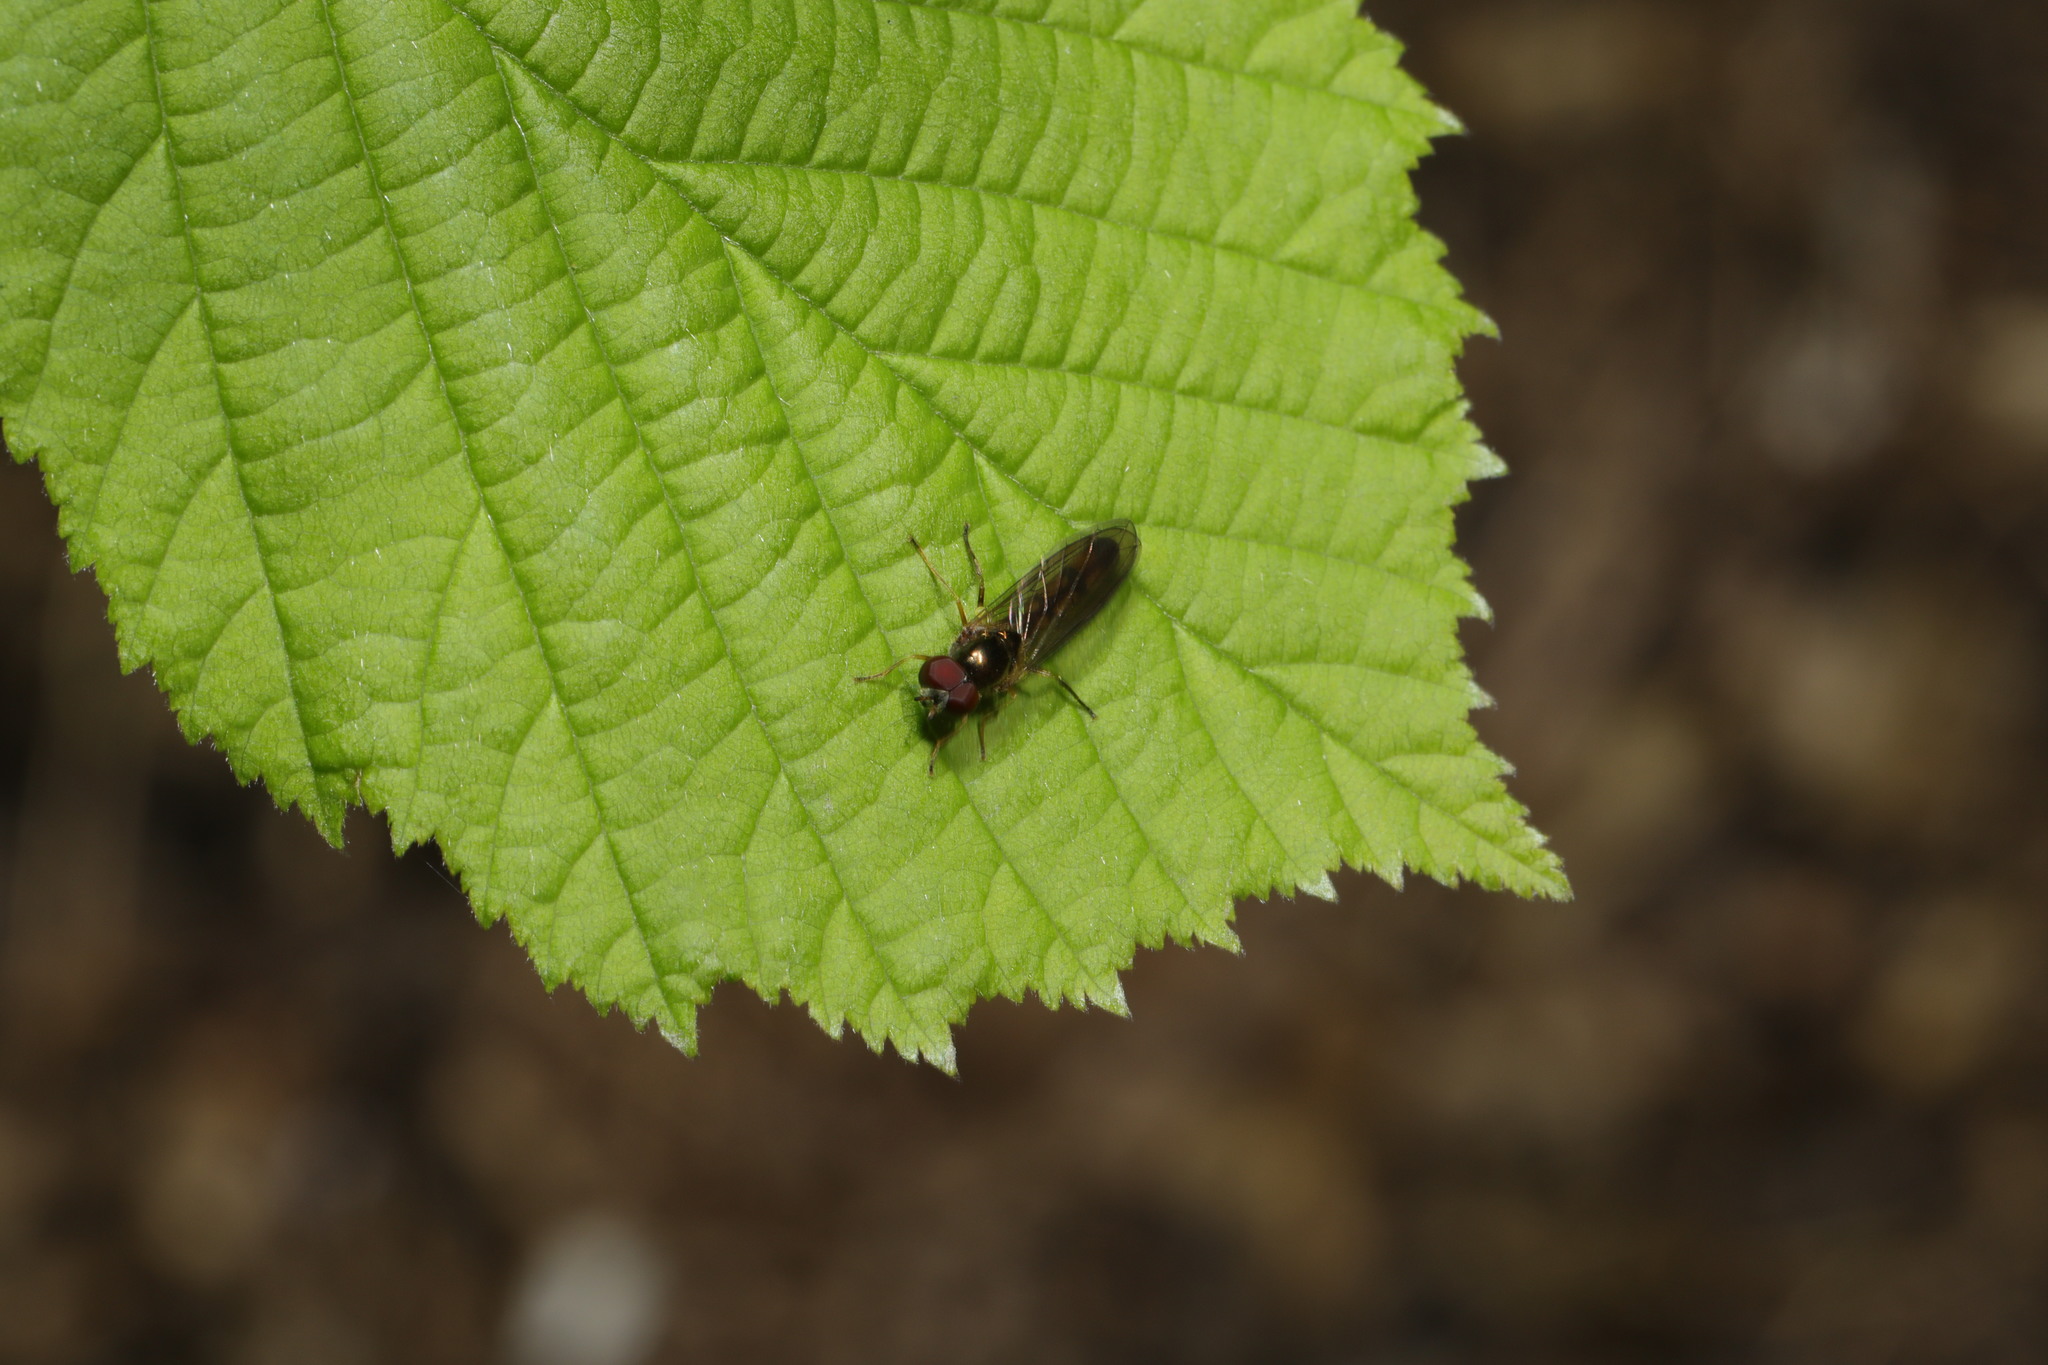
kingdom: Animalia
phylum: Arthropoda
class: Insecta
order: Diptera
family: Syrphidae
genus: Melanostoma
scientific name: Melanostoma scalare
